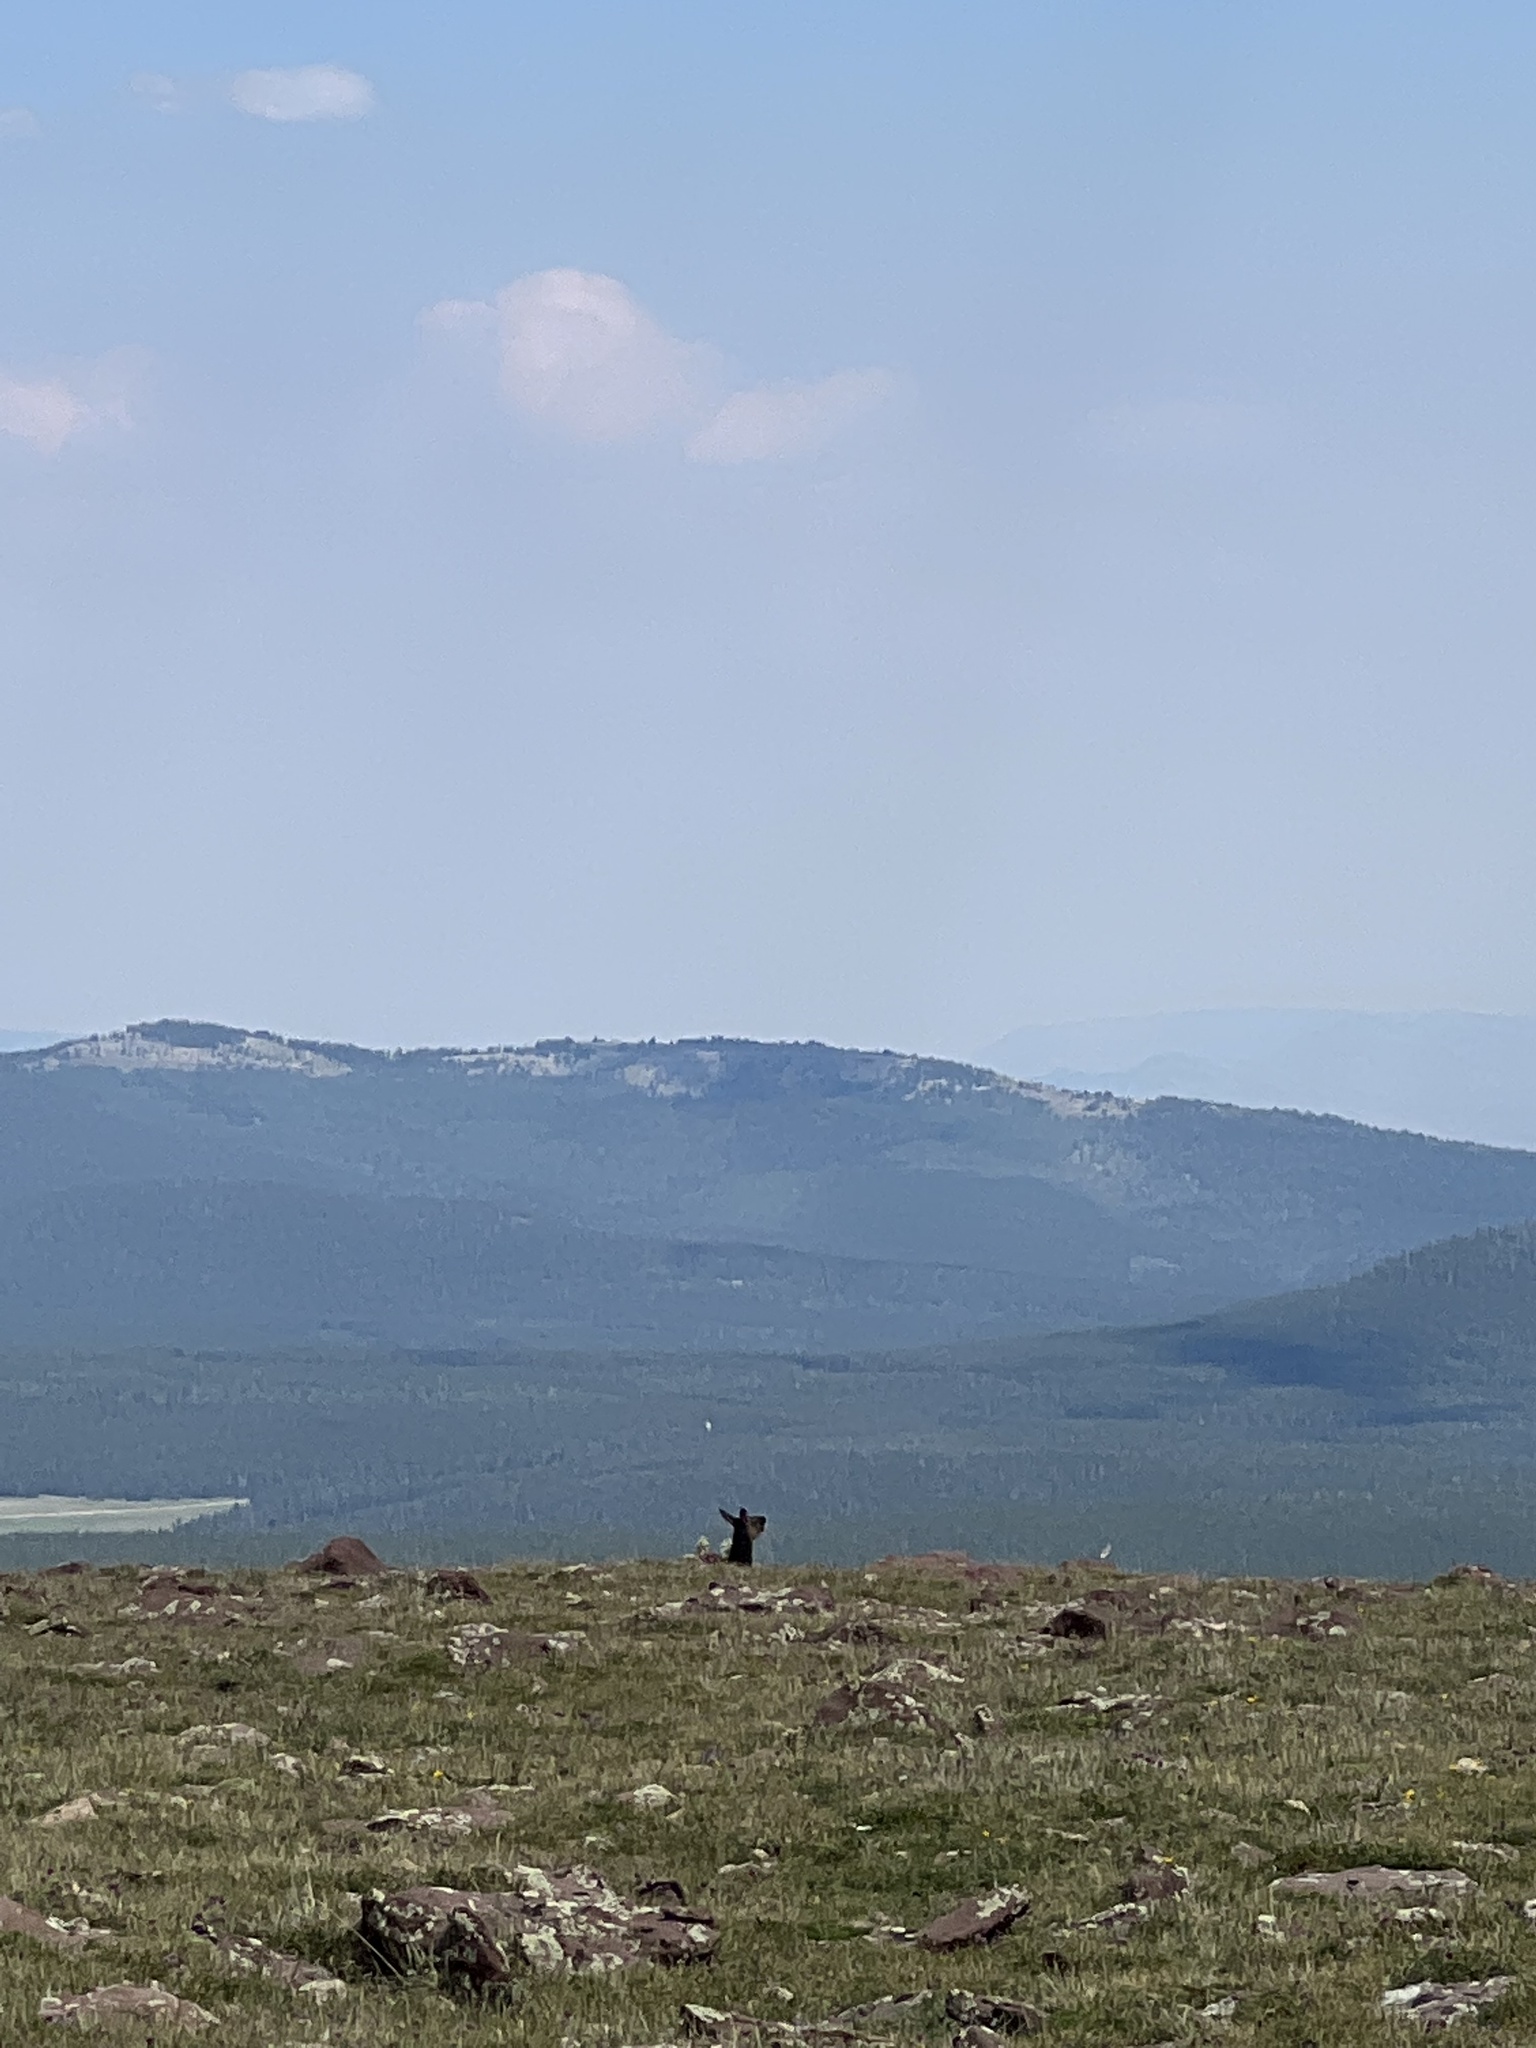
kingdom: Animalia
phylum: Chordata
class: Mammalia
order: Artiodactyla
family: Cervidae
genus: Cervus
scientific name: Cervus elaphus
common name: Red deer
